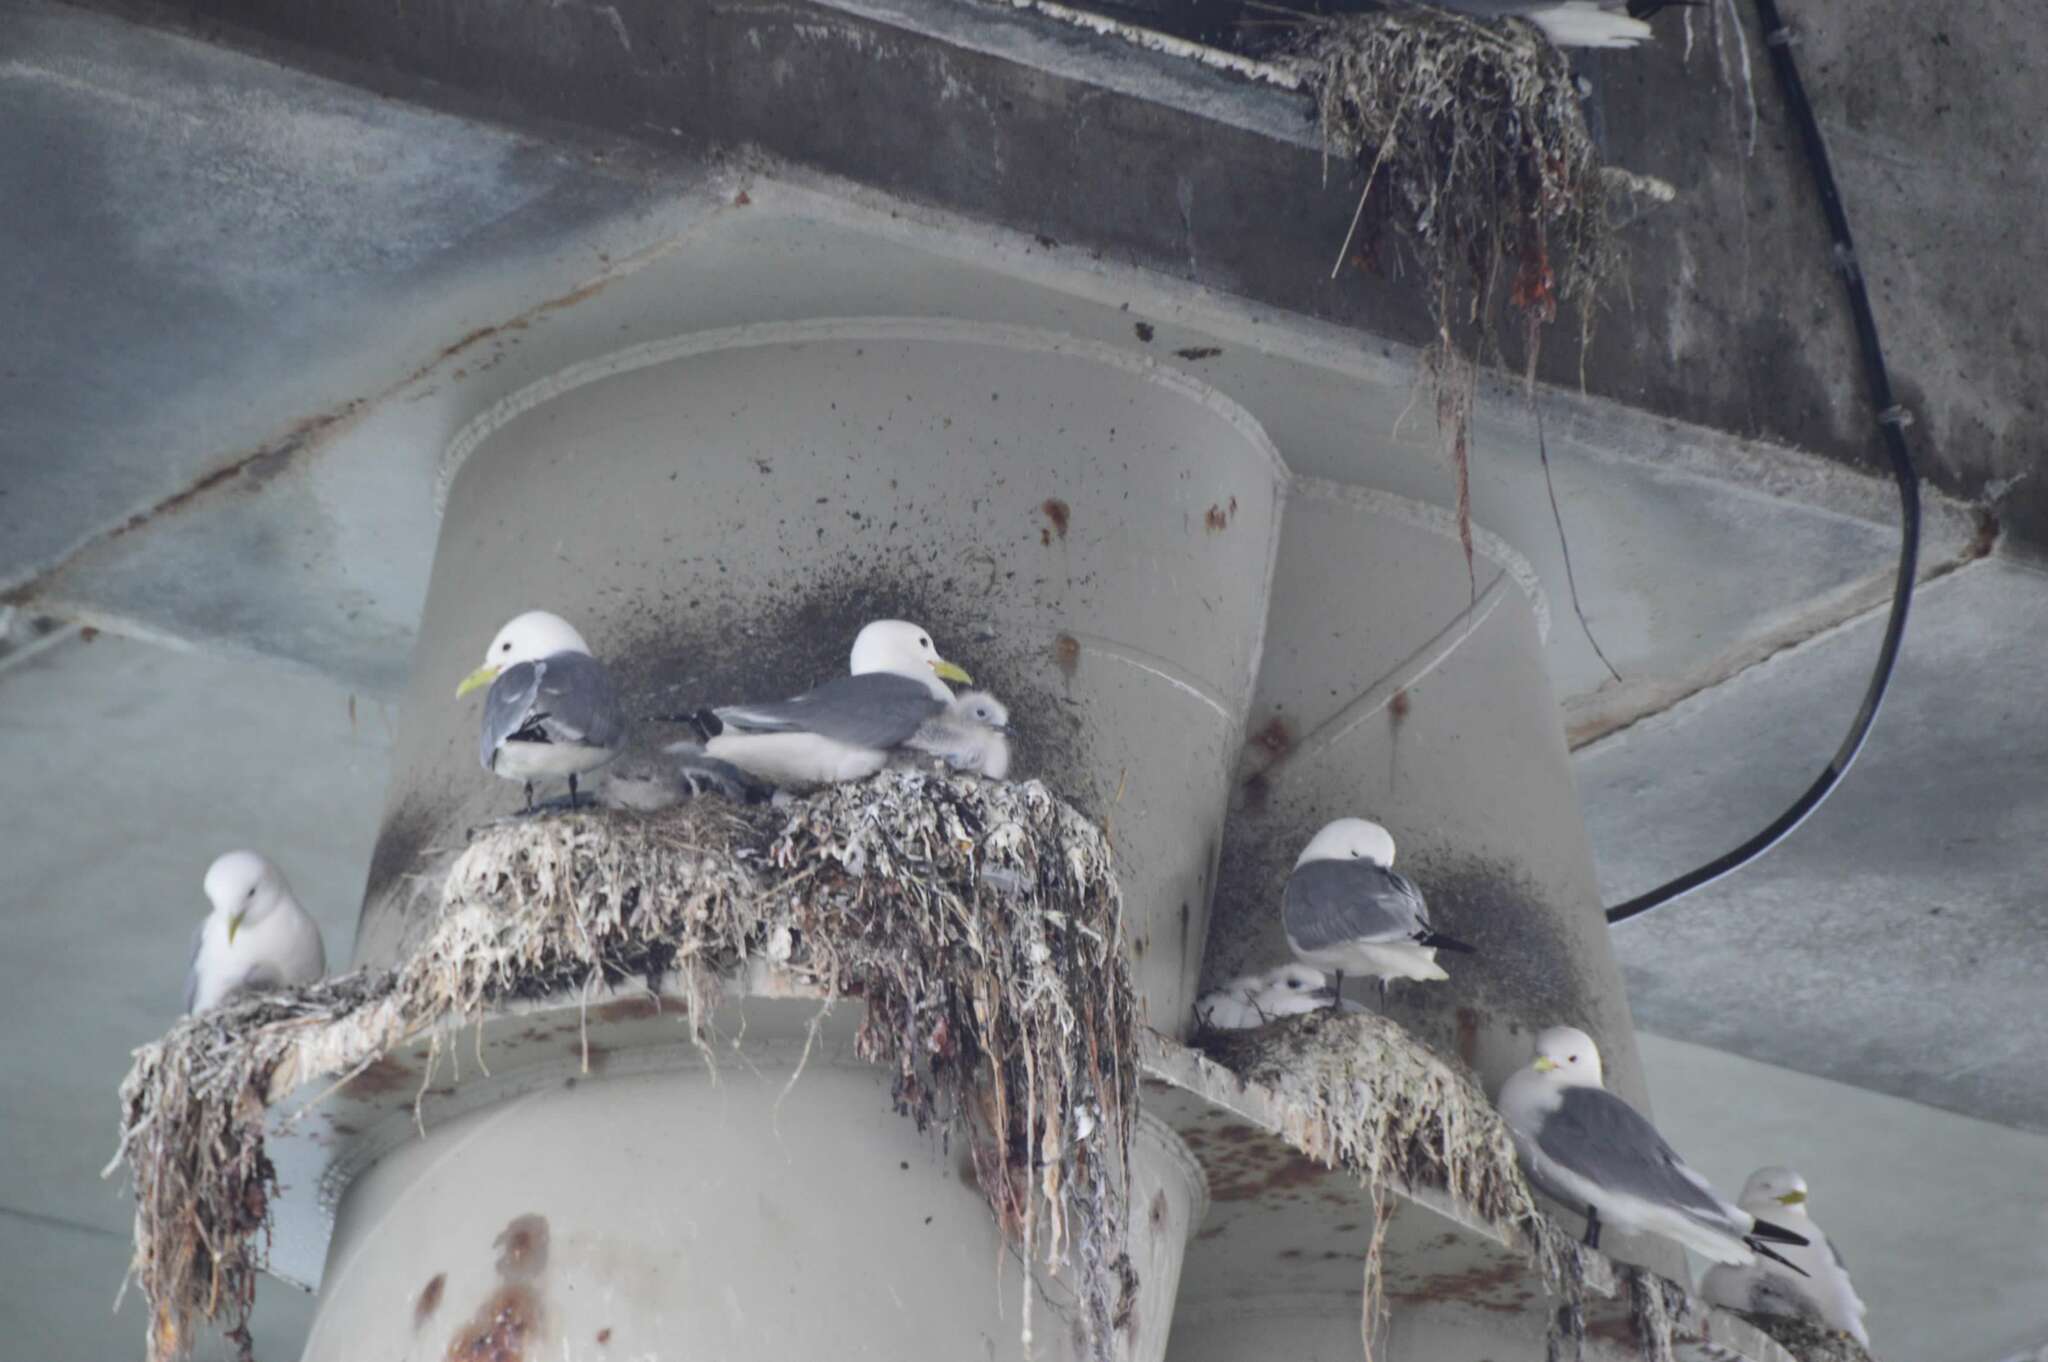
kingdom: Animalia
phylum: Chordata
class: Aves
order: Charadriiformes
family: Laridae
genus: Rissa
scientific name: Rissa tridactyla
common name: Black-legged kittiwake
